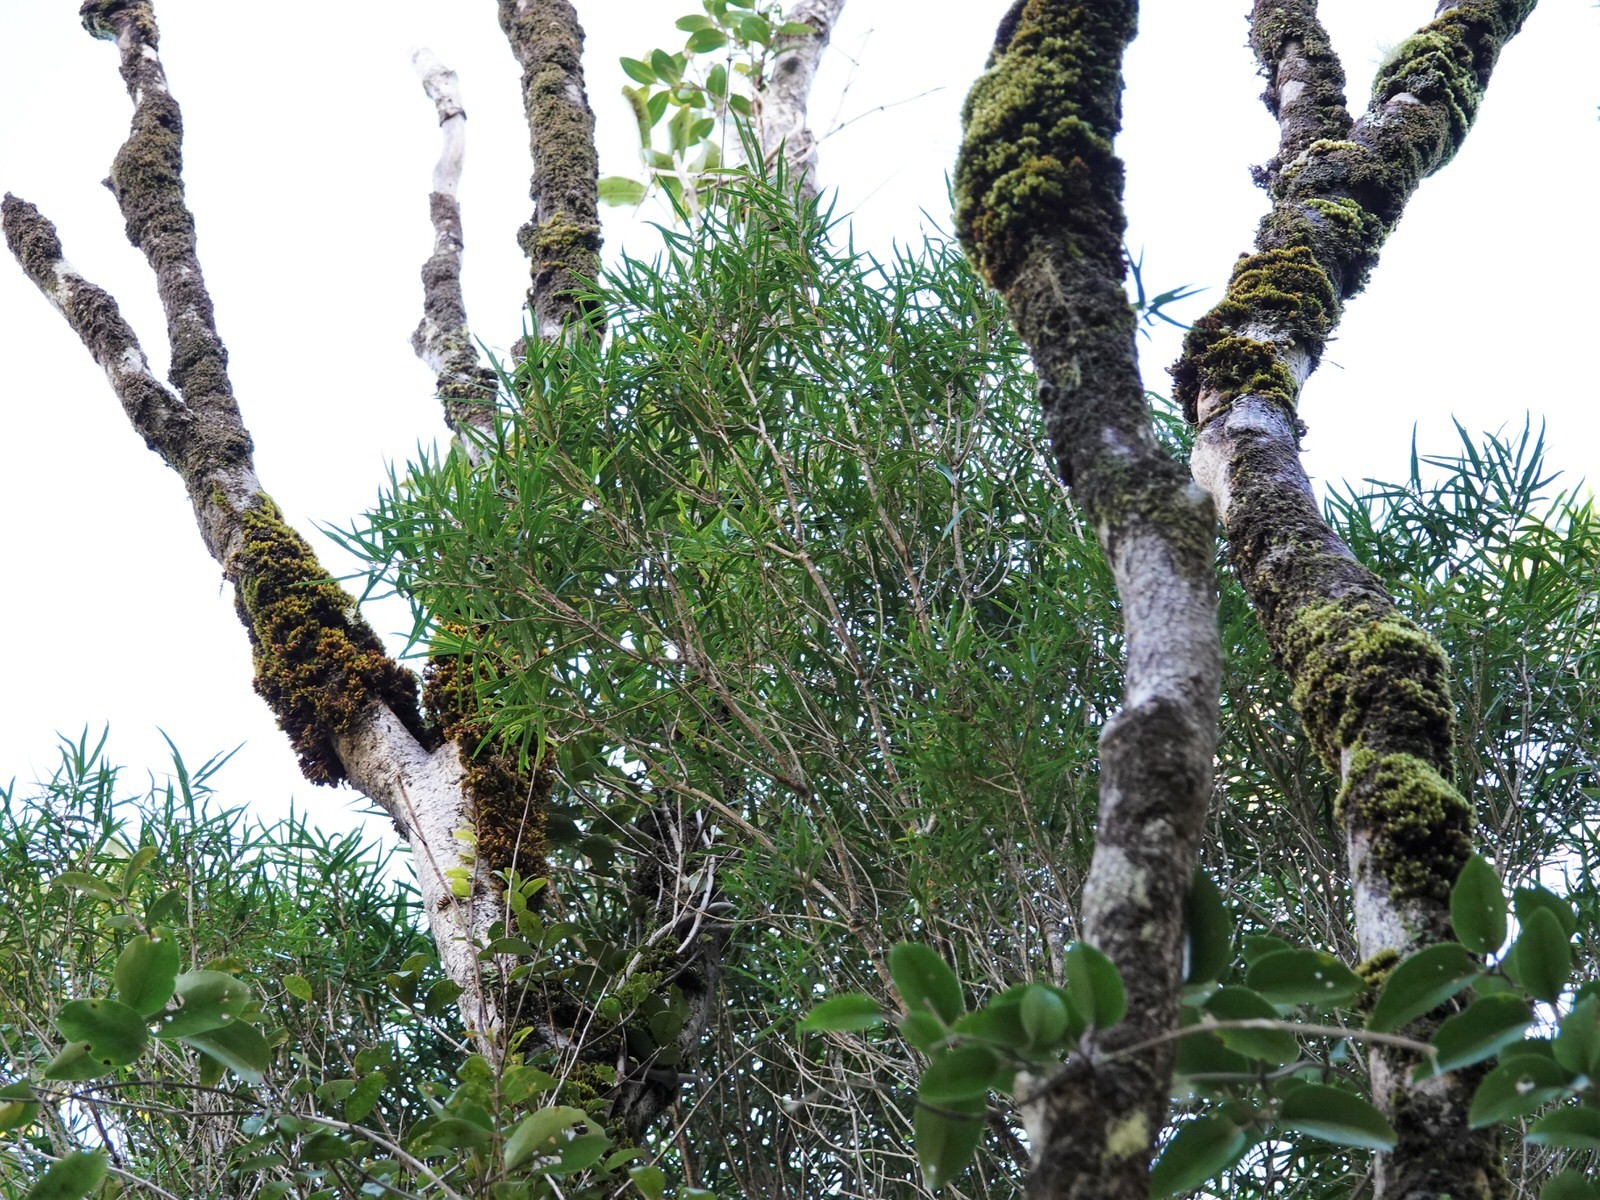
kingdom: Plantae
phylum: Tracheophyta
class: Magnoliopsida
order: Lamiales
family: Oleaceae
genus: Nestegis
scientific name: Nestegis montana
